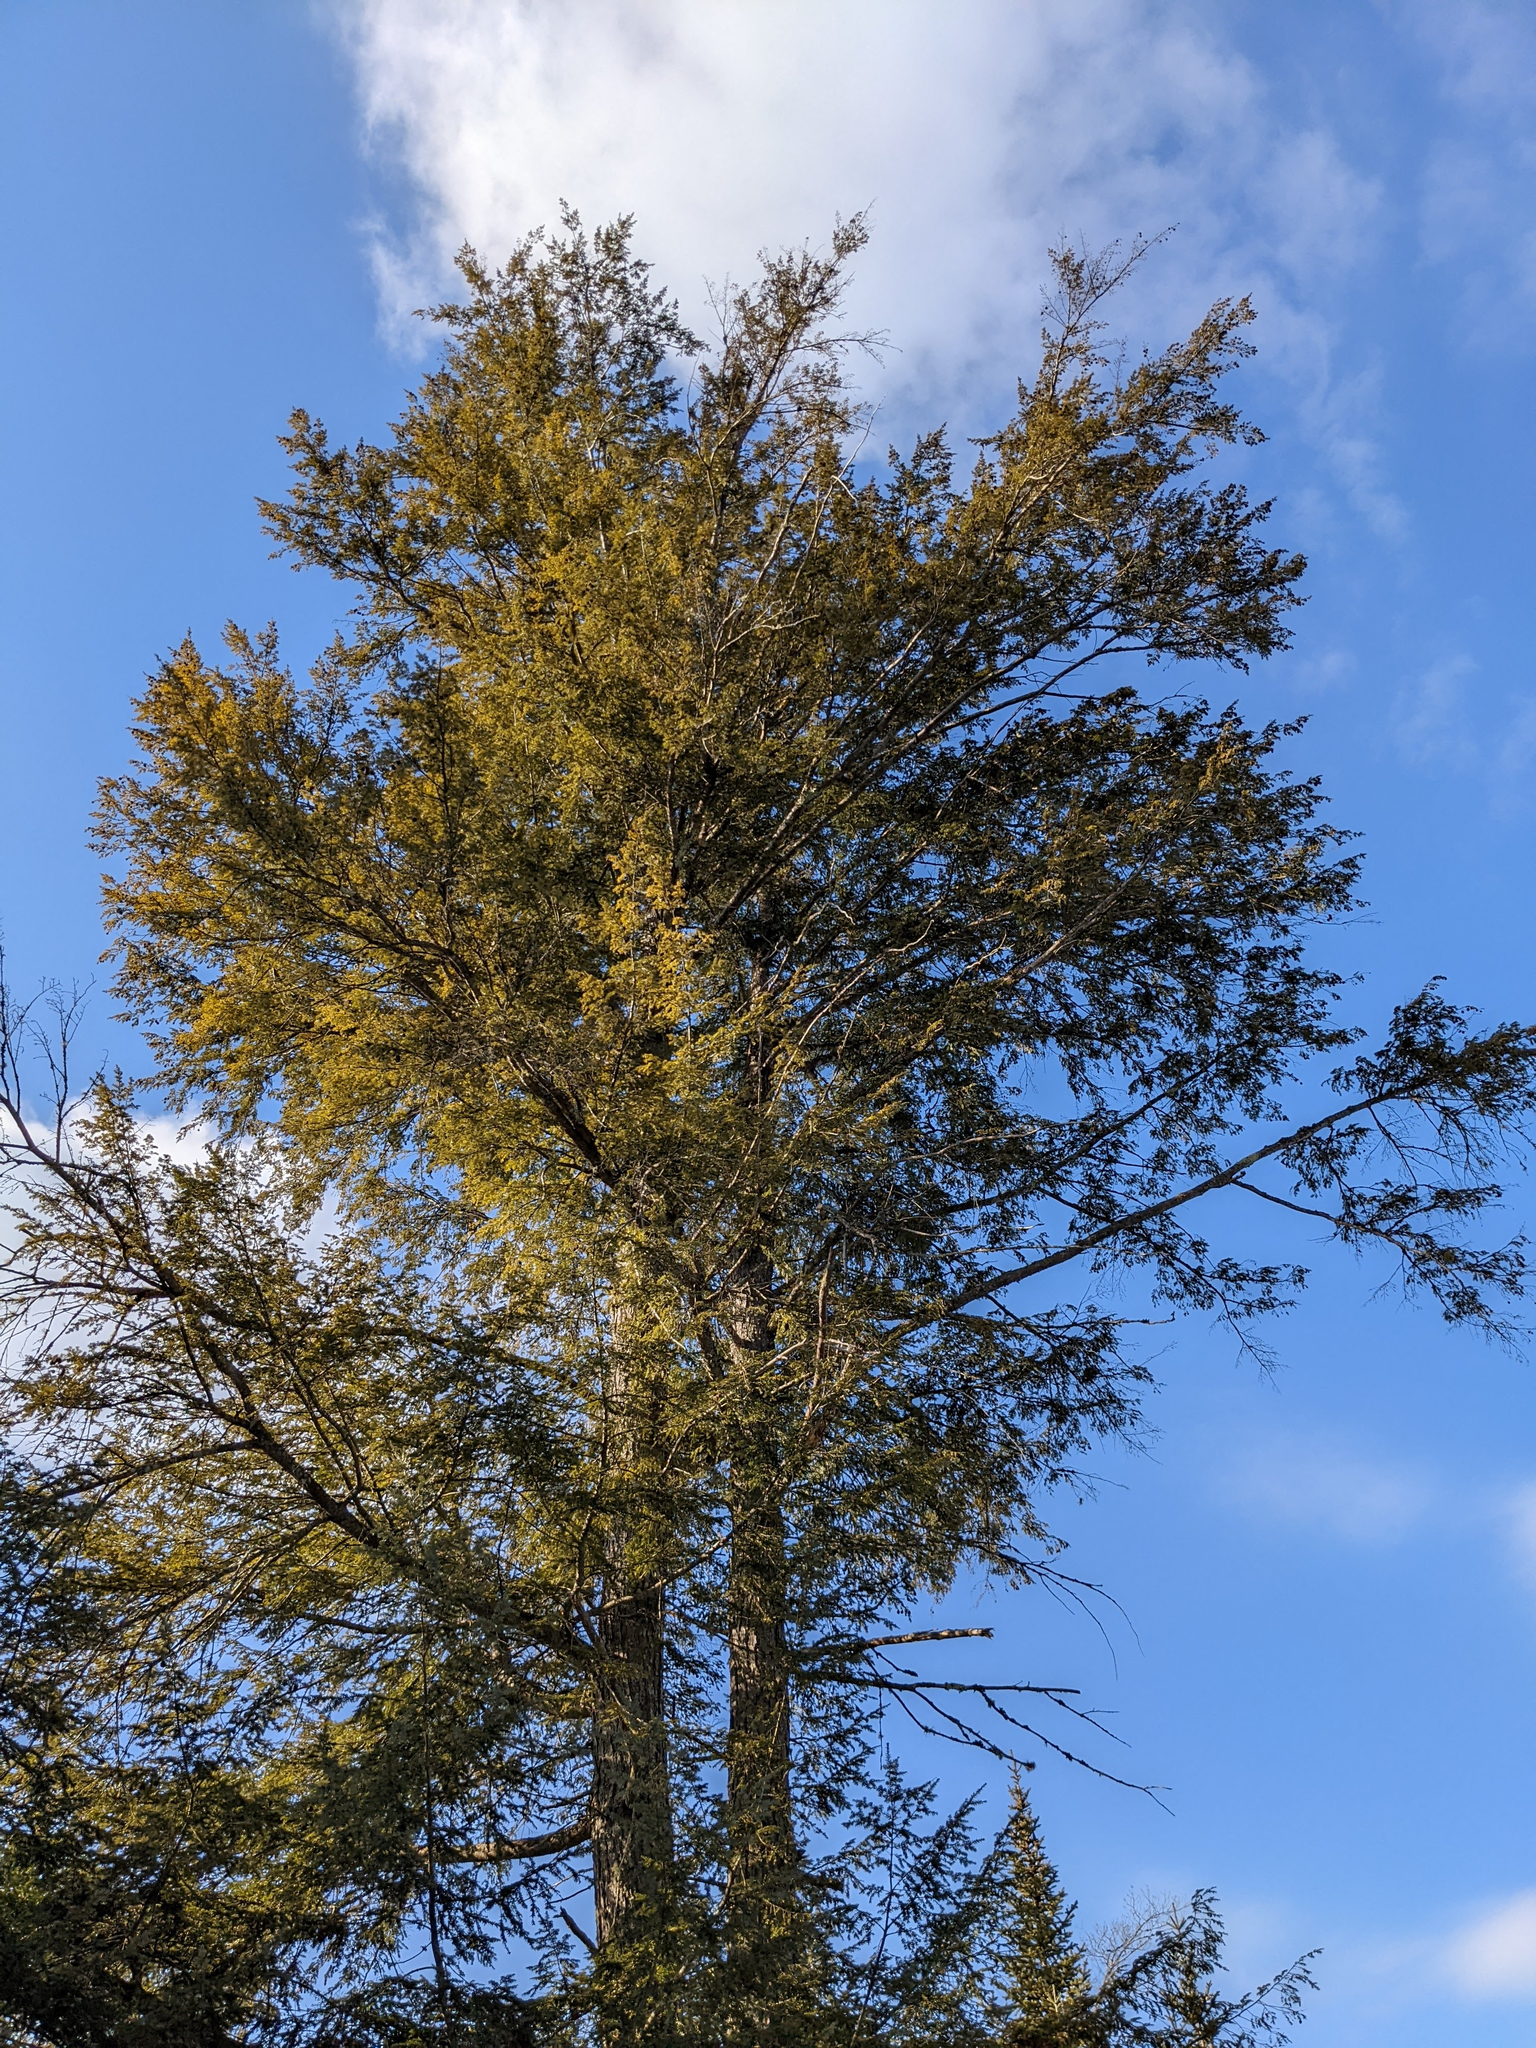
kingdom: Plantae
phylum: Tracheophyta
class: Pinopsida
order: Pinales
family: Pinaceae
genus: Tsuga
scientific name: Tsuga canadensis
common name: Eastern hemlock
